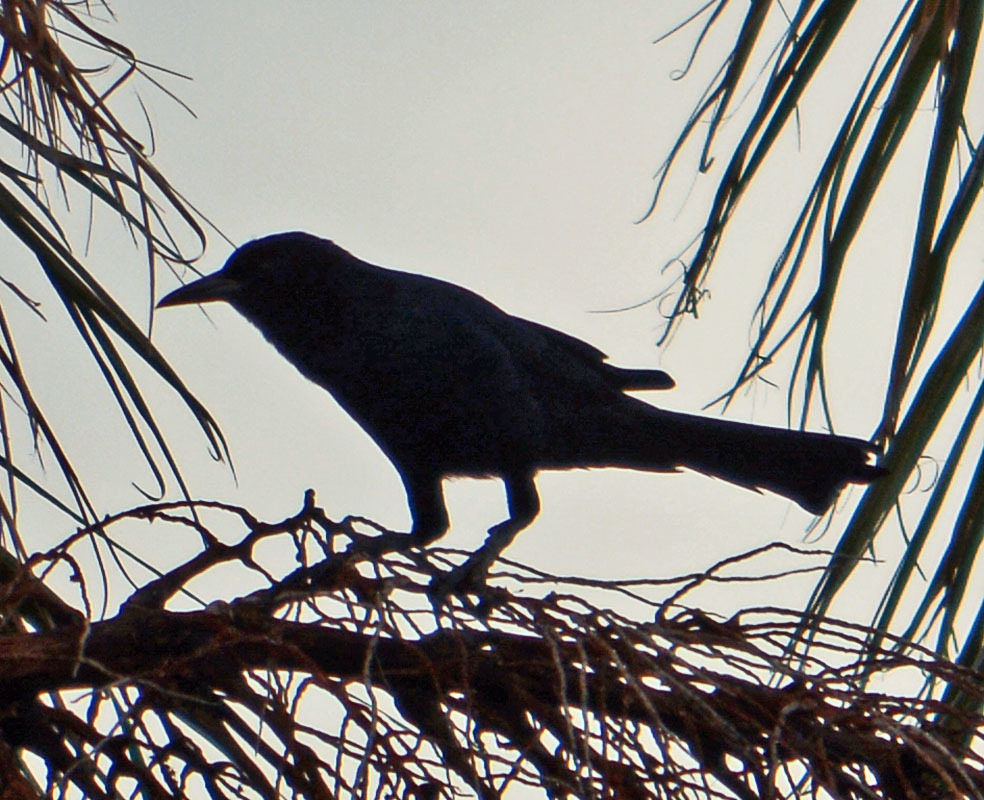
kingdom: Animalia
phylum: Chordata
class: Aves
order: Passeriformes
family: Icteridae
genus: Quiscalus
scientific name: Quiscalus major
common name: Boat-tailed grackle
